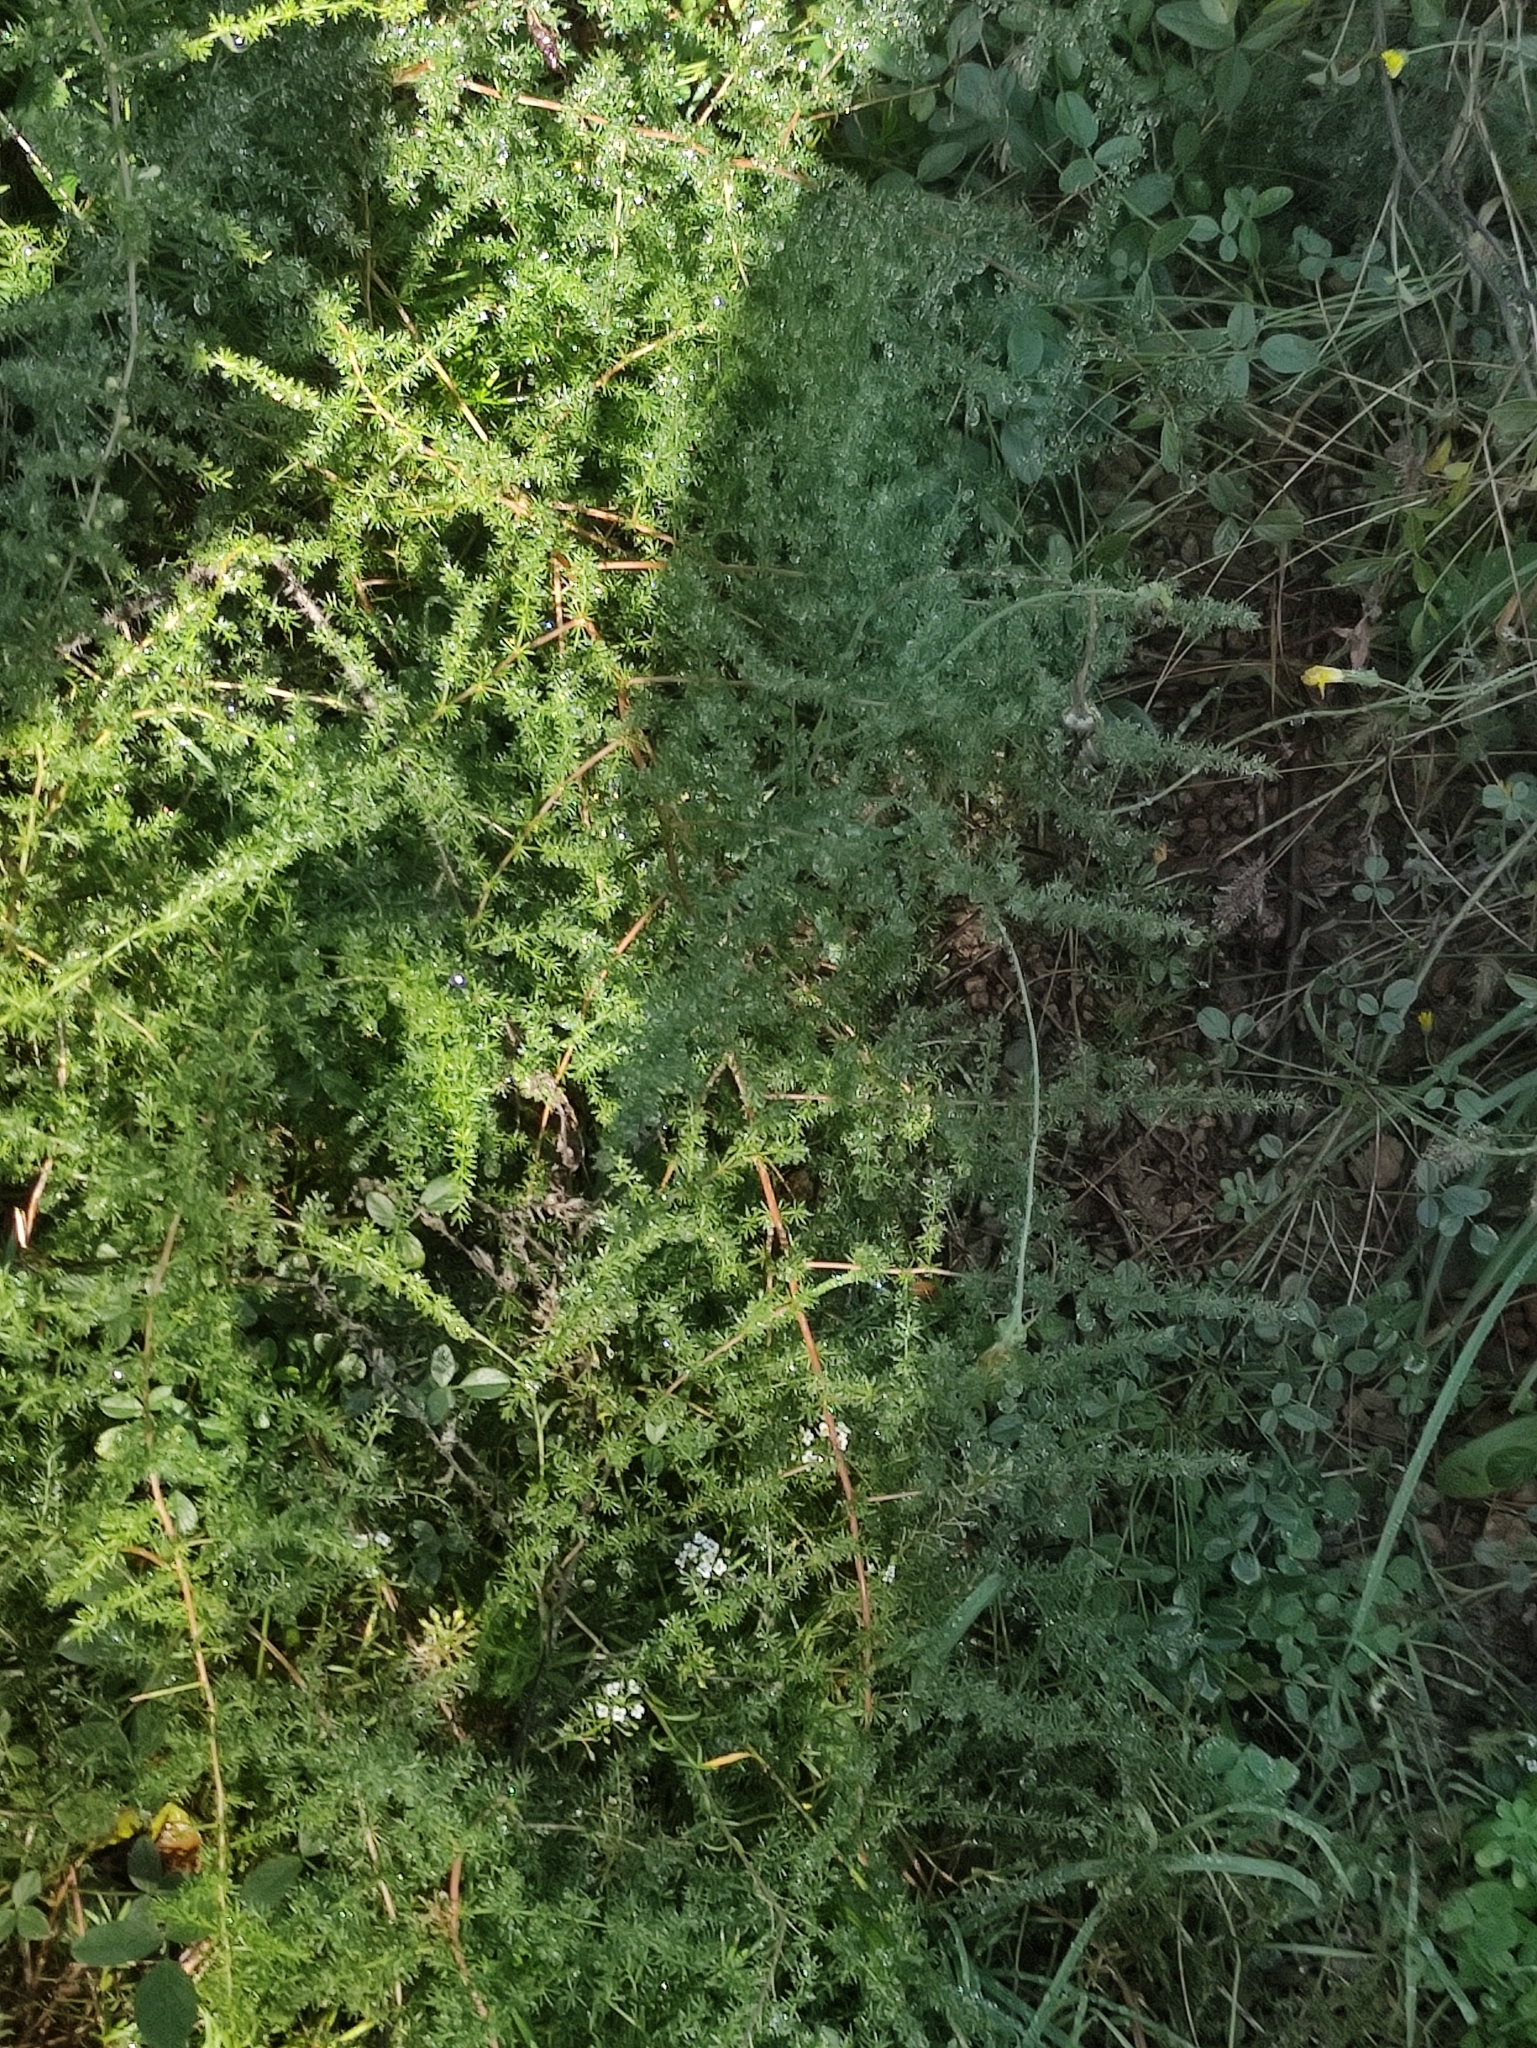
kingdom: Plantae
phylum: Tracheophyta
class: Liliopsida
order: Asparagales
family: Asparagaceae
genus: Asparagus
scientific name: Asparagus acutifolius
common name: Wild asparagus
